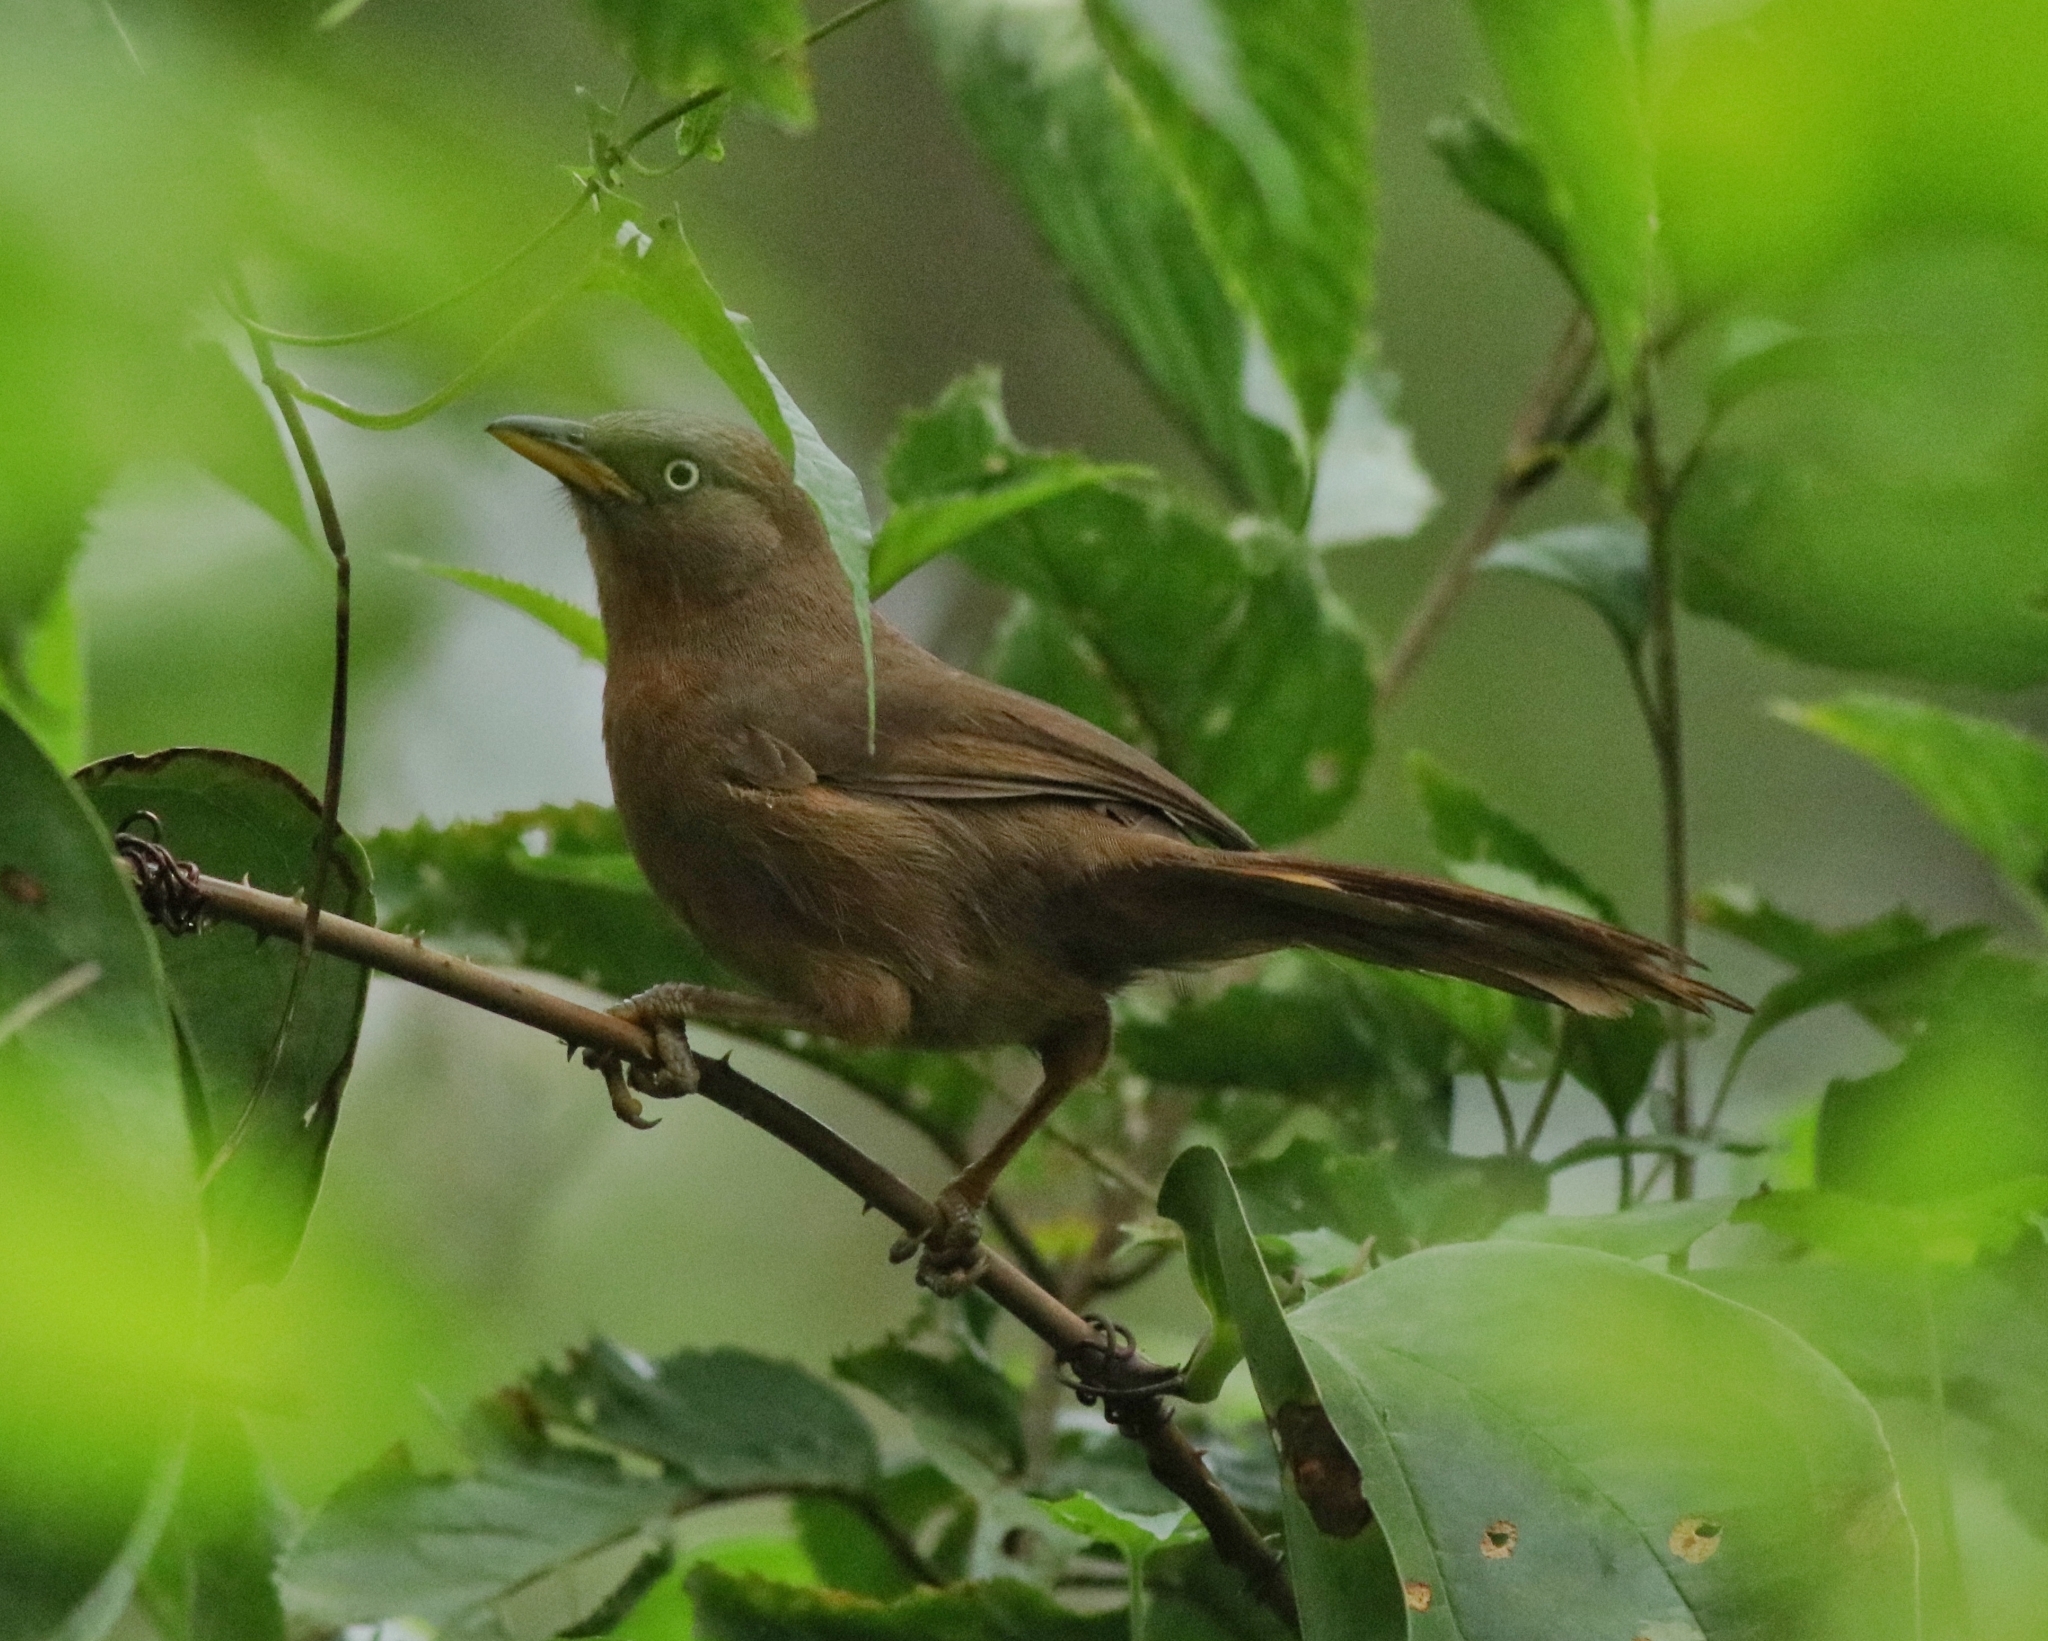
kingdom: Animalia
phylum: Chordata
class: Aves
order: Passeriformes
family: Leiothrichidae
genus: Turdoides
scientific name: Turdoides subrufa
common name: Rufous babbler
